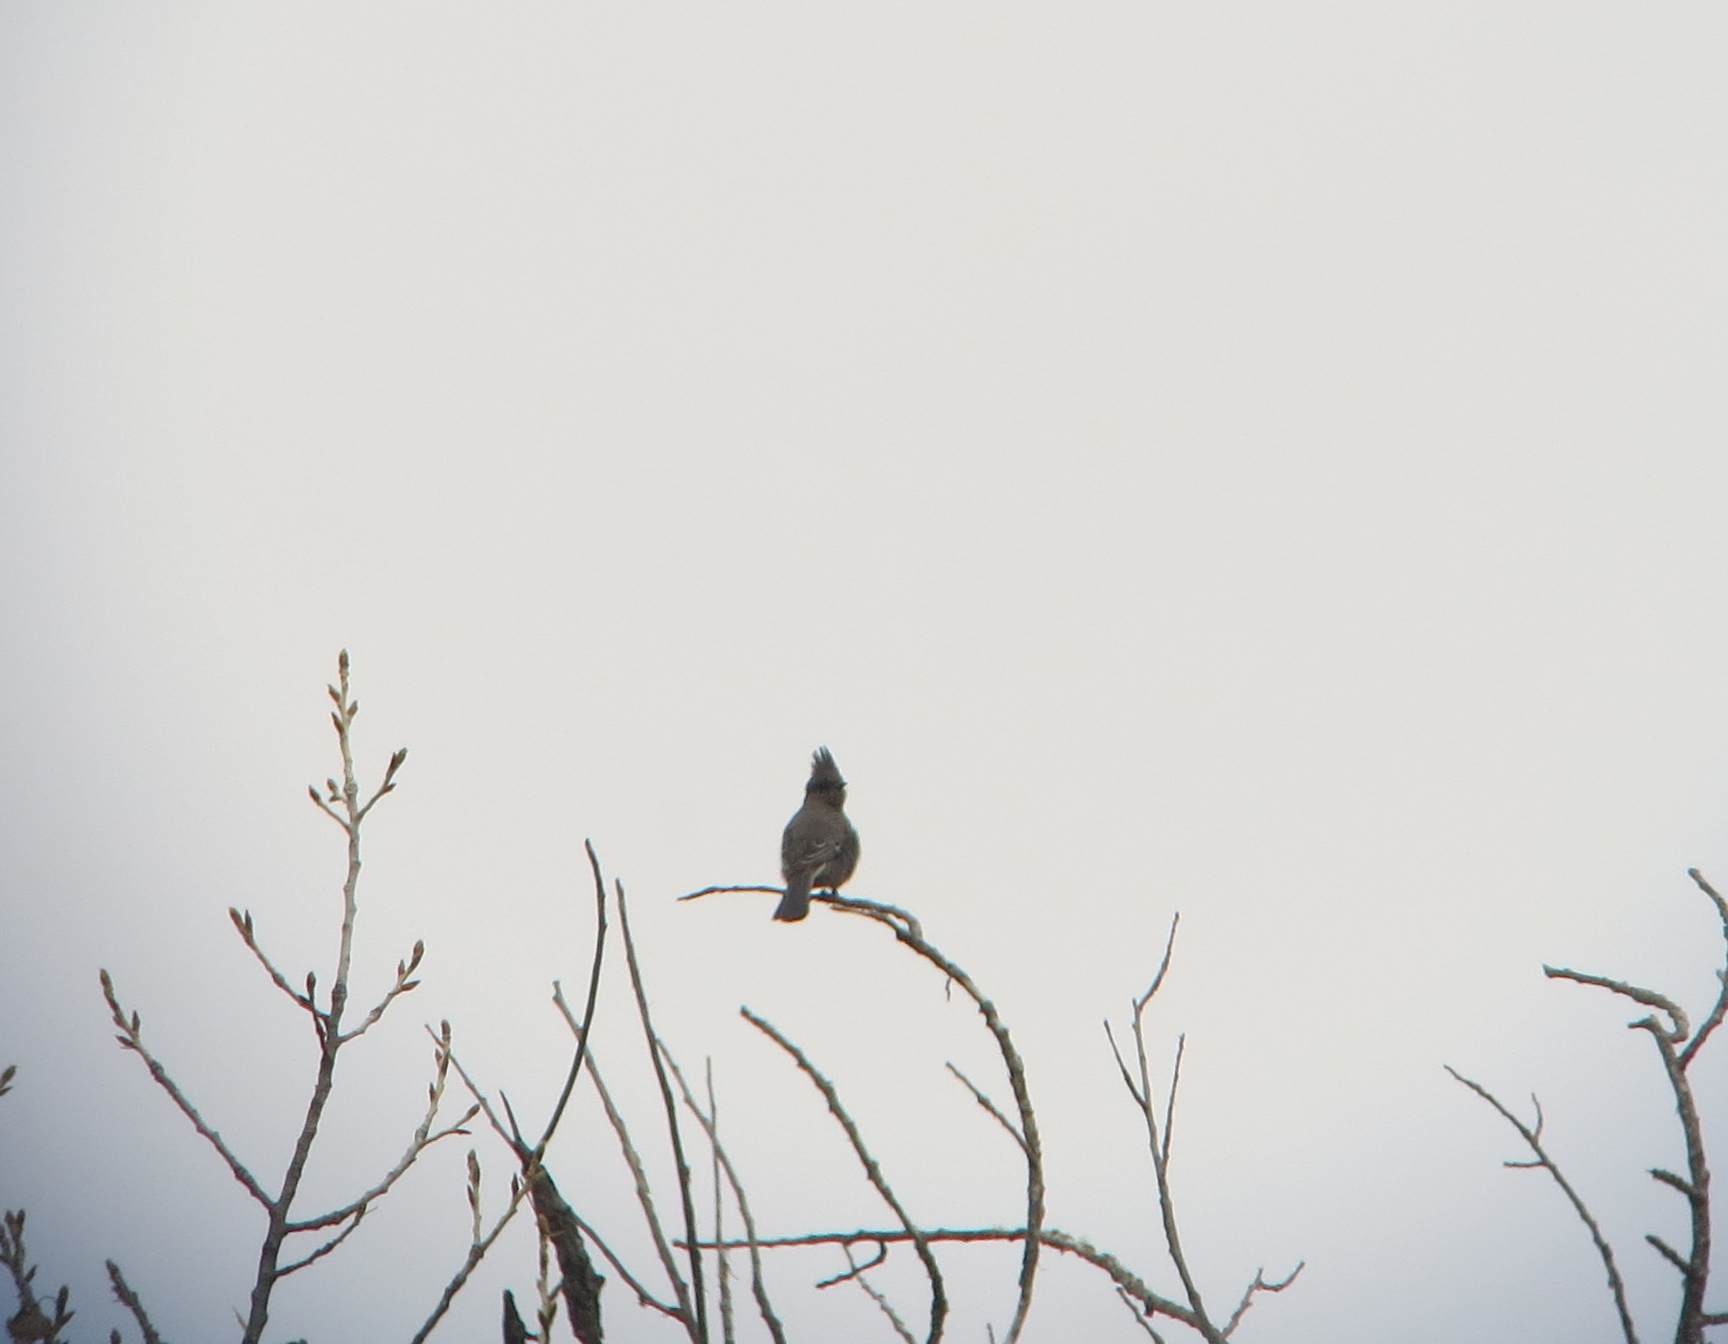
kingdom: Animalia
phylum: Chordata
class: Aves
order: Passeriformes
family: Ptilogonatidae
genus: Phainopepla
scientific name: Phainopepla nitens
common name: Phainopepla
